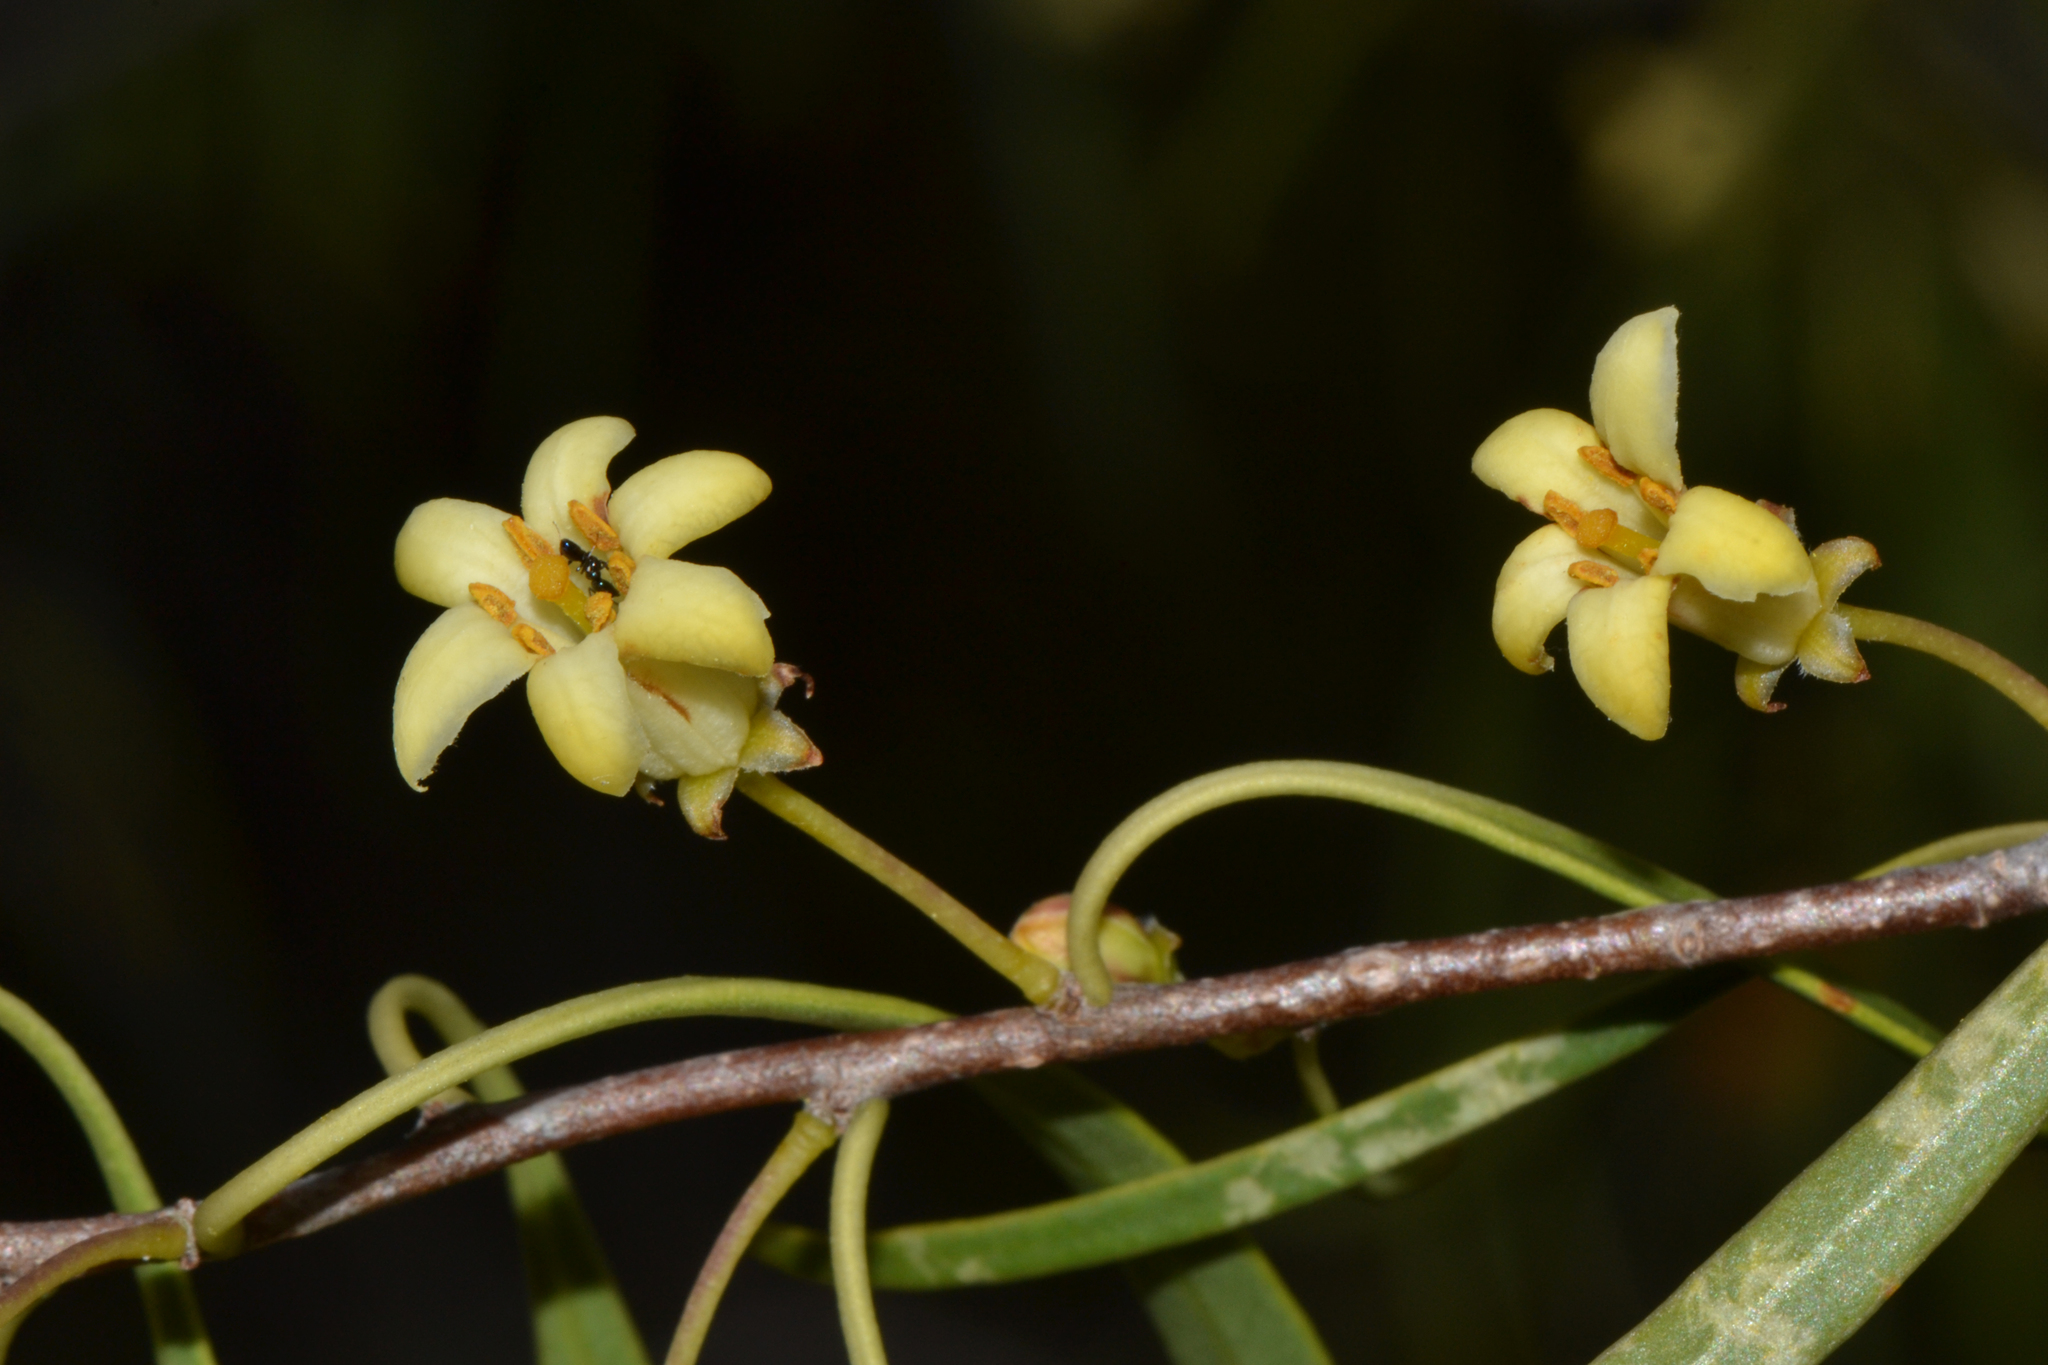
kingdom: Plantae
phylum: Tracheophyta
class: Magnoliopsida
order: Apiales
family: Pittosporaceae
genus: Pittosporum
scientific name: Pittosporum angustifolium
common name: Weeping pittosporum
